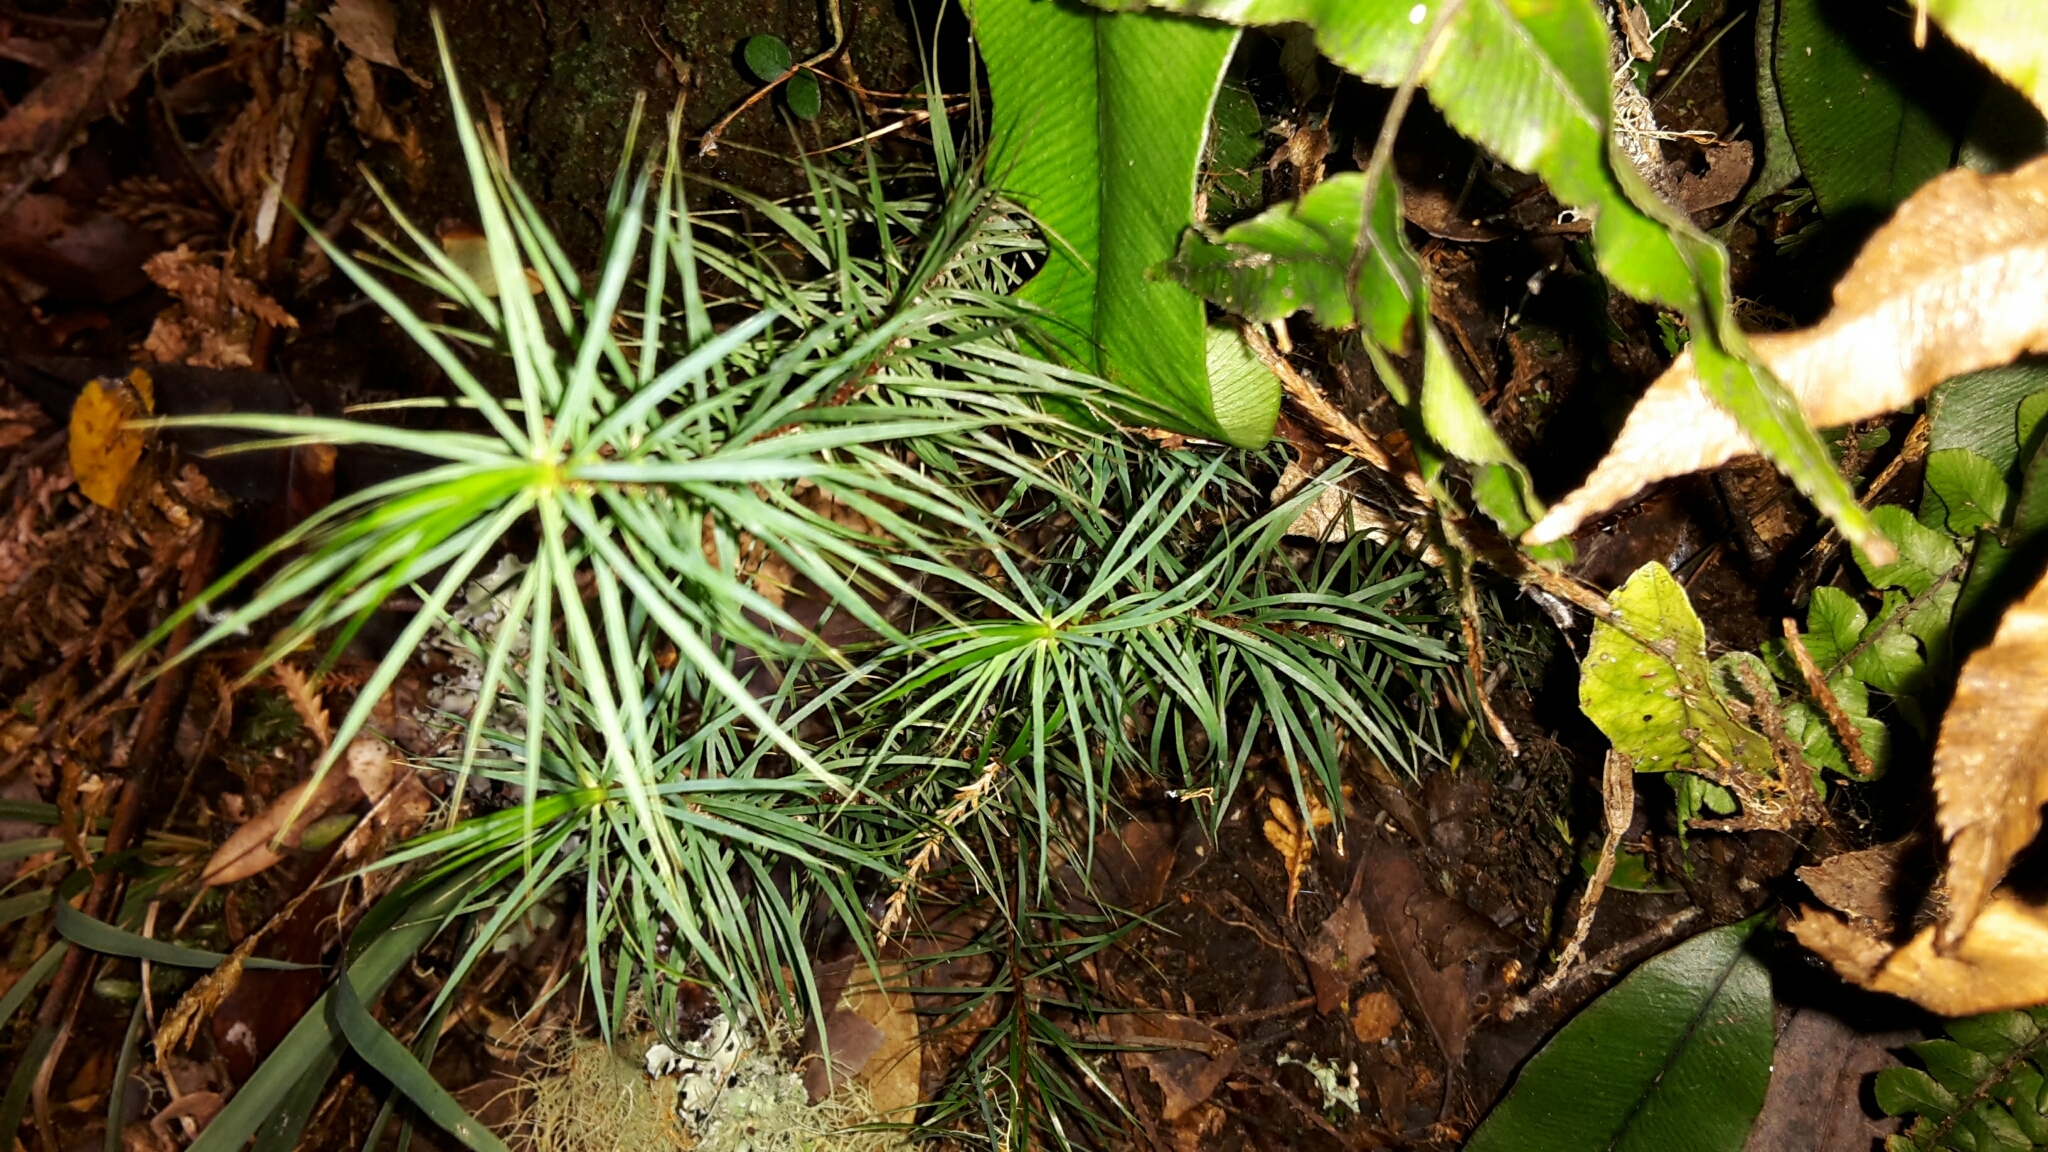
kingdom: Plantae
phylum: Bryophyta
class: Polytrichopsida
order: Polytrichales
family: Polytrichaceae
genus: Dawsonia
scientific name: Dawsonia superba
